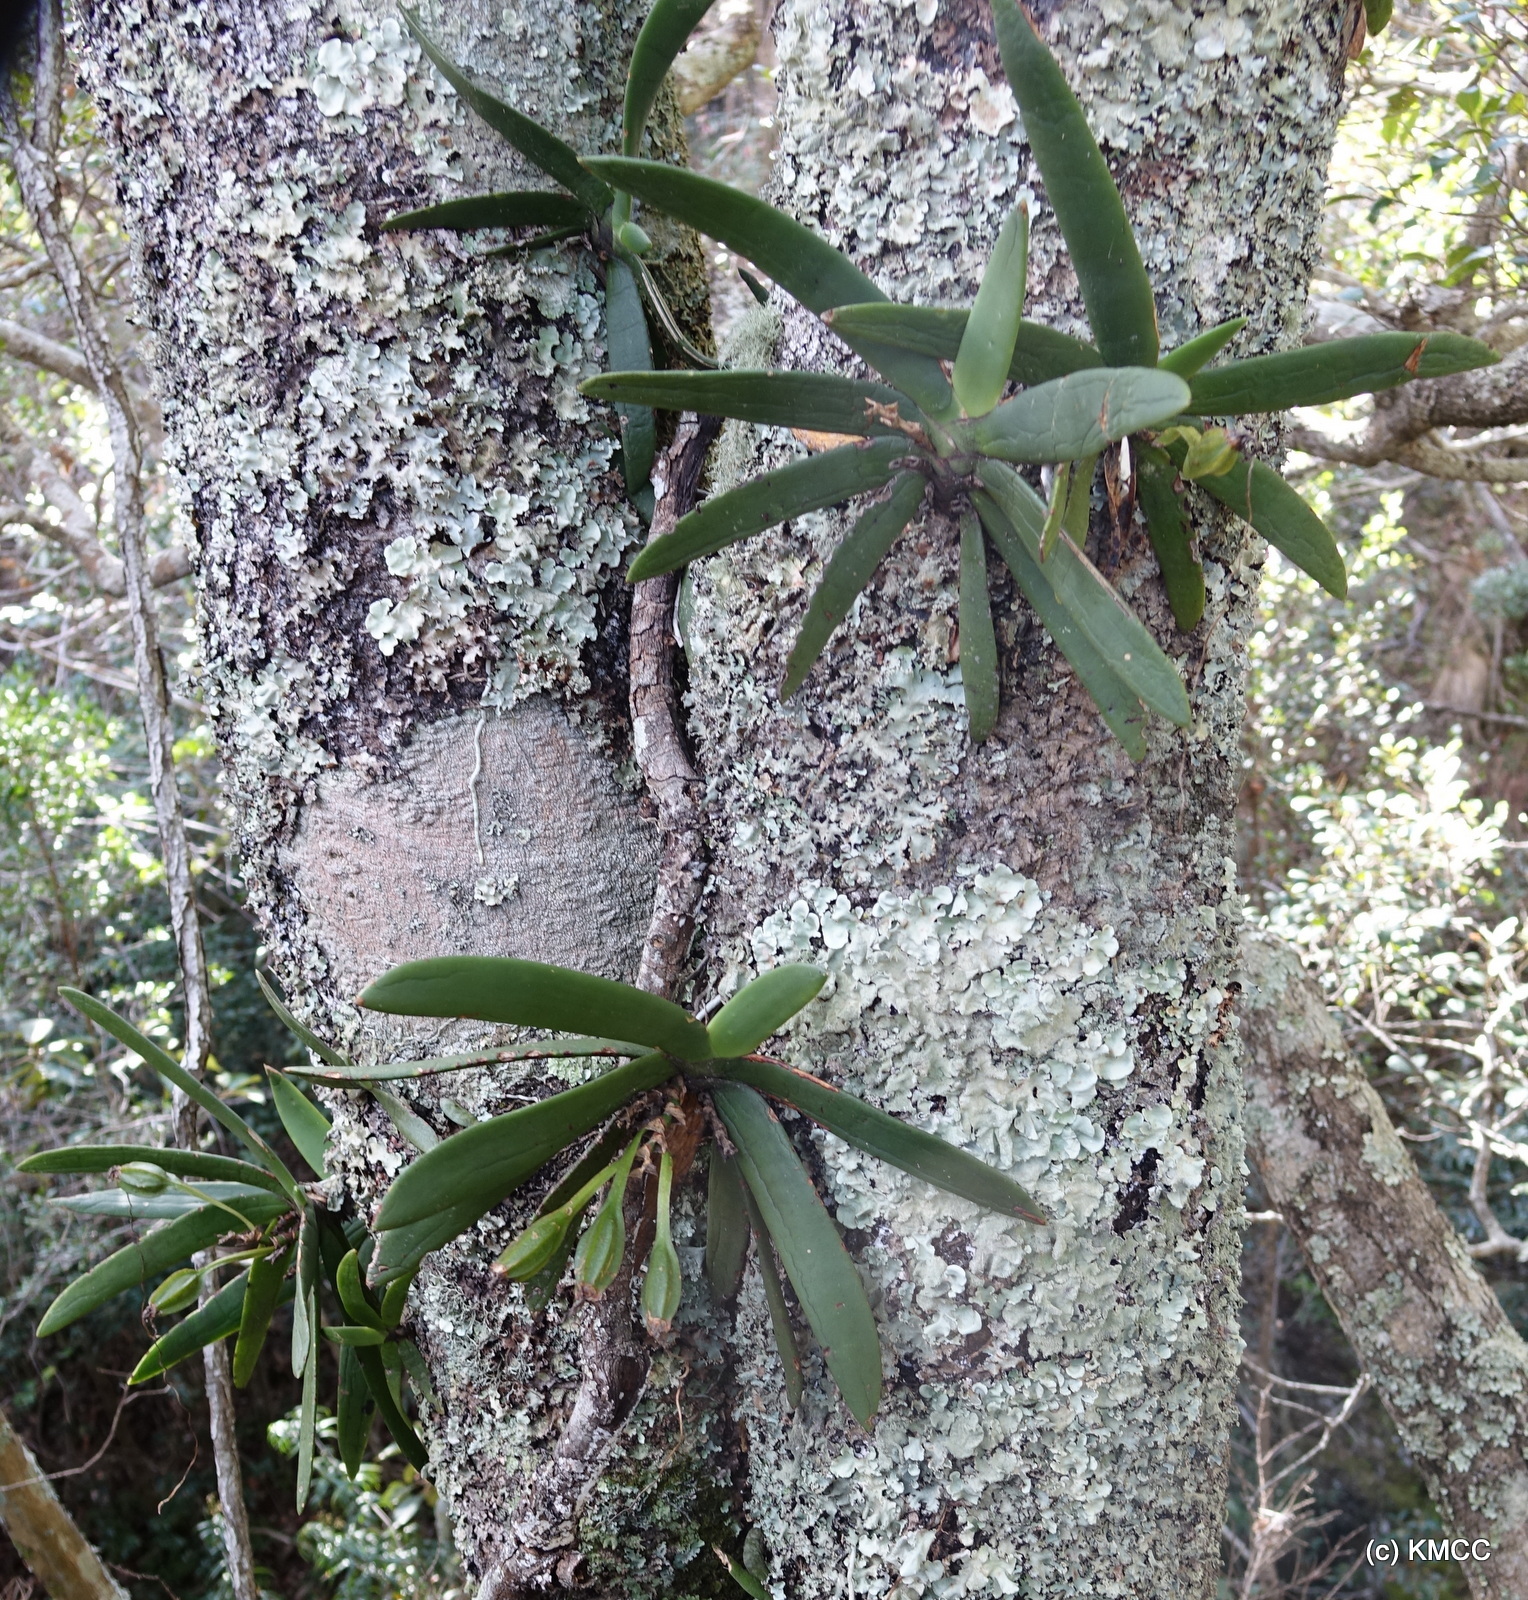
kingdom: Plantae
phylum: Tracheophyta
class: Liliopsida
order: Asparagales
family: Orchidaceae
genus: Angraecum
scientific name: Angraecum leonis
